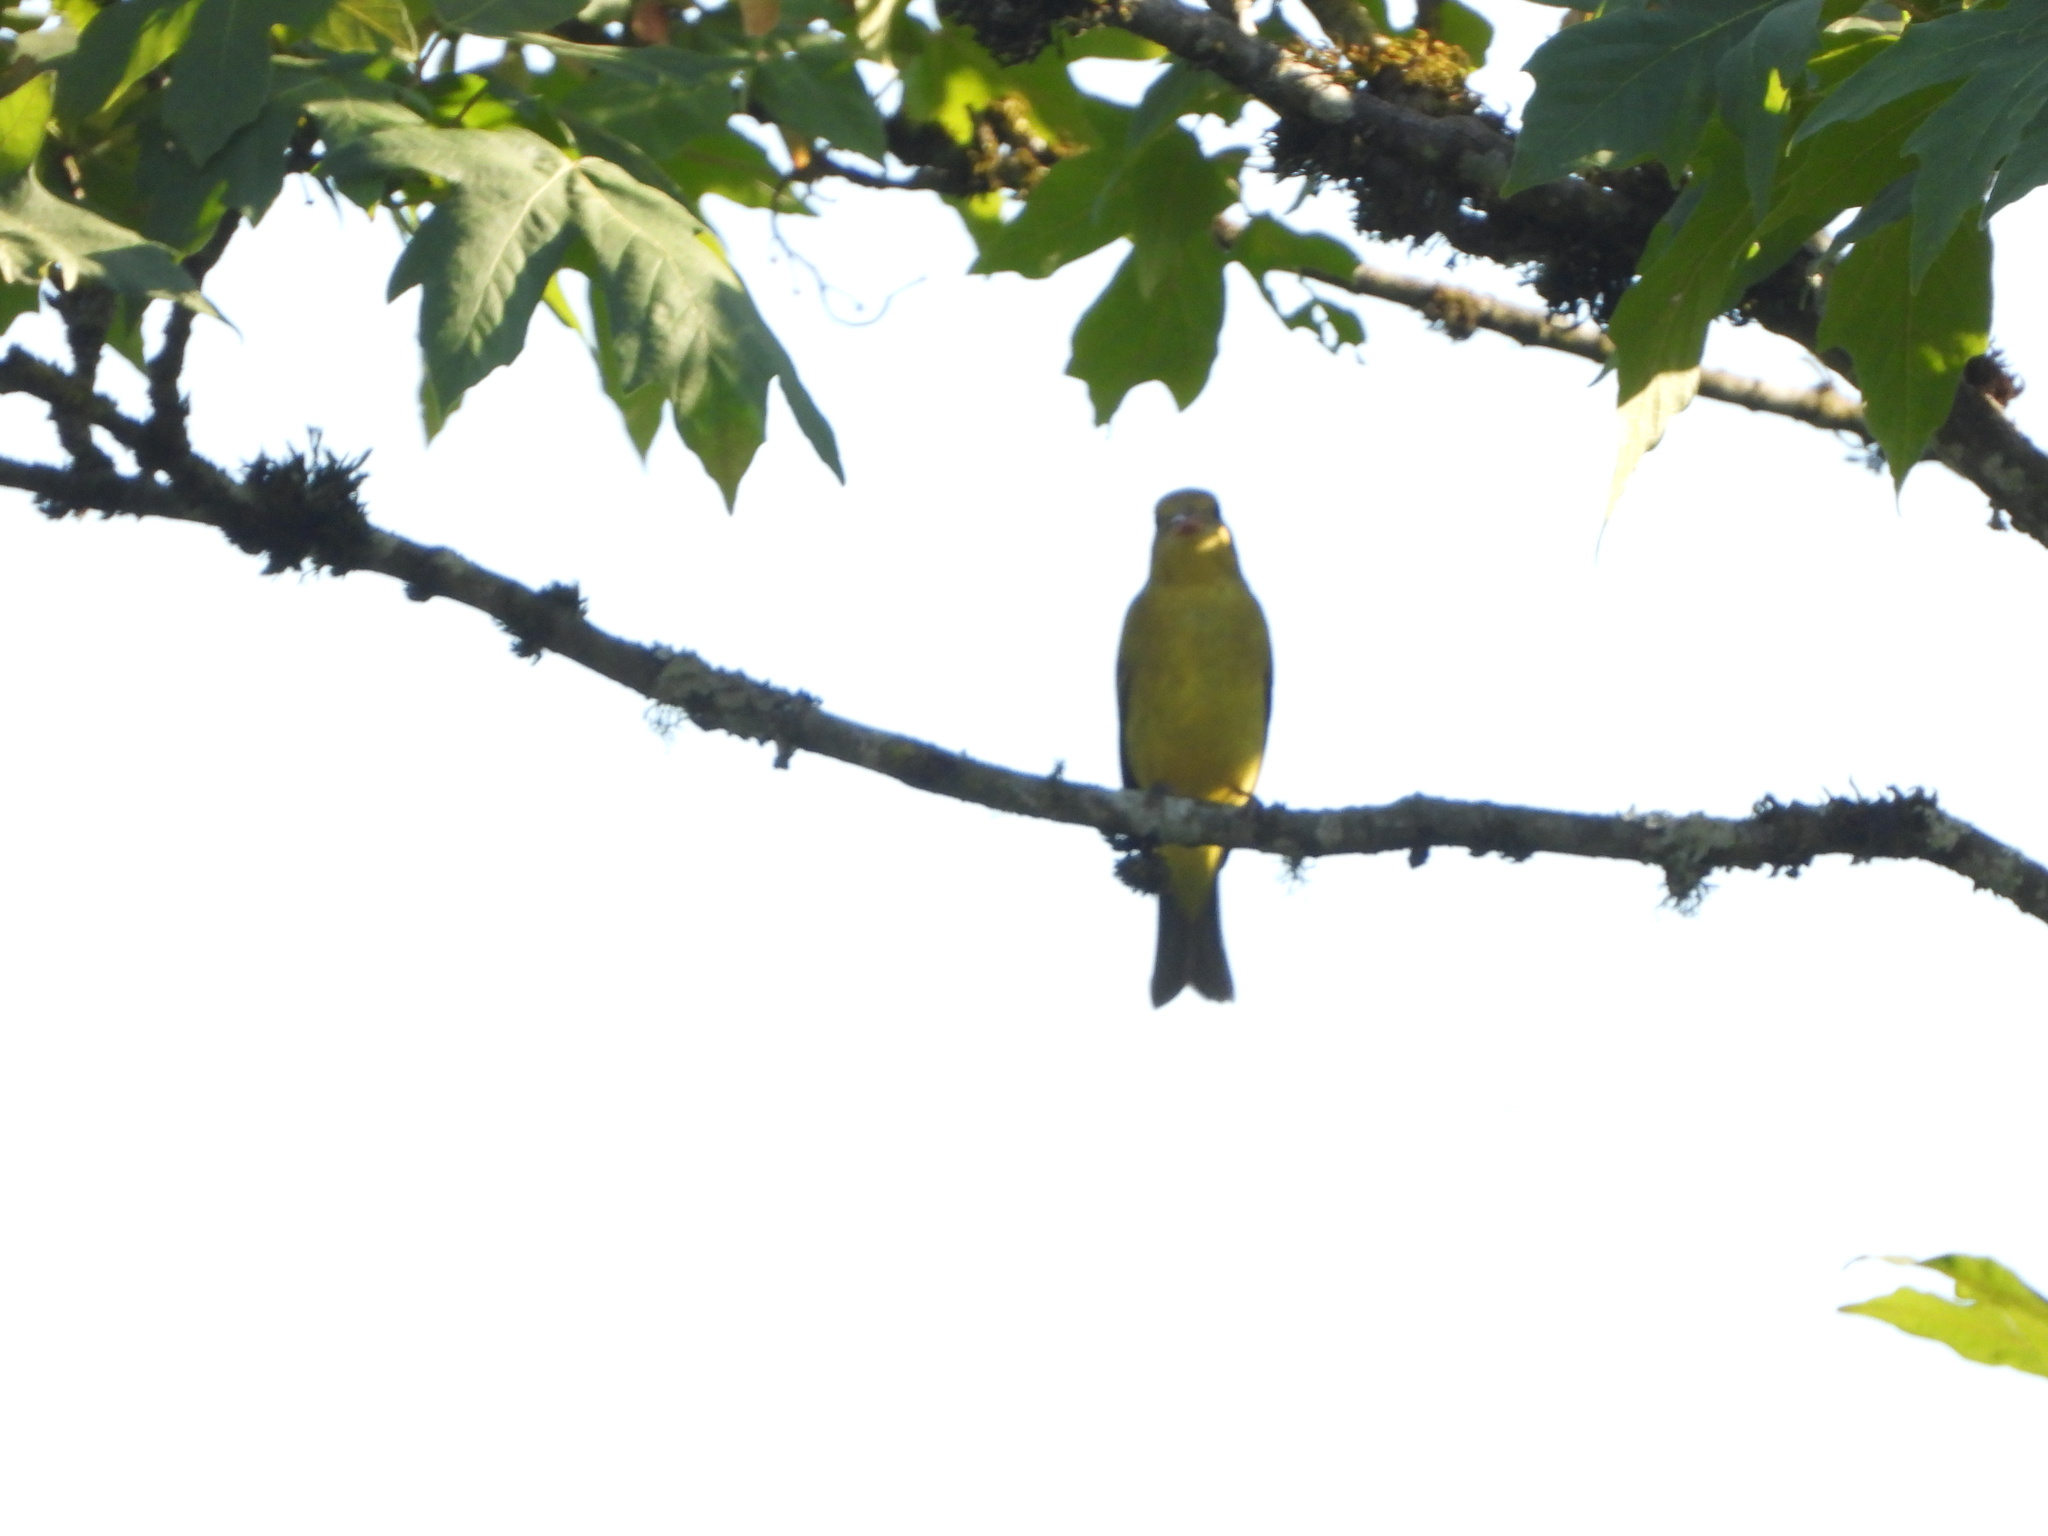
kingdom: Animalia
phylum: Chordata
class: Aves
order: Passeriformes
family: Cardinalidae
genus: Piranga
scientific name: Piranga ludoviciana
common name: Western tanager
